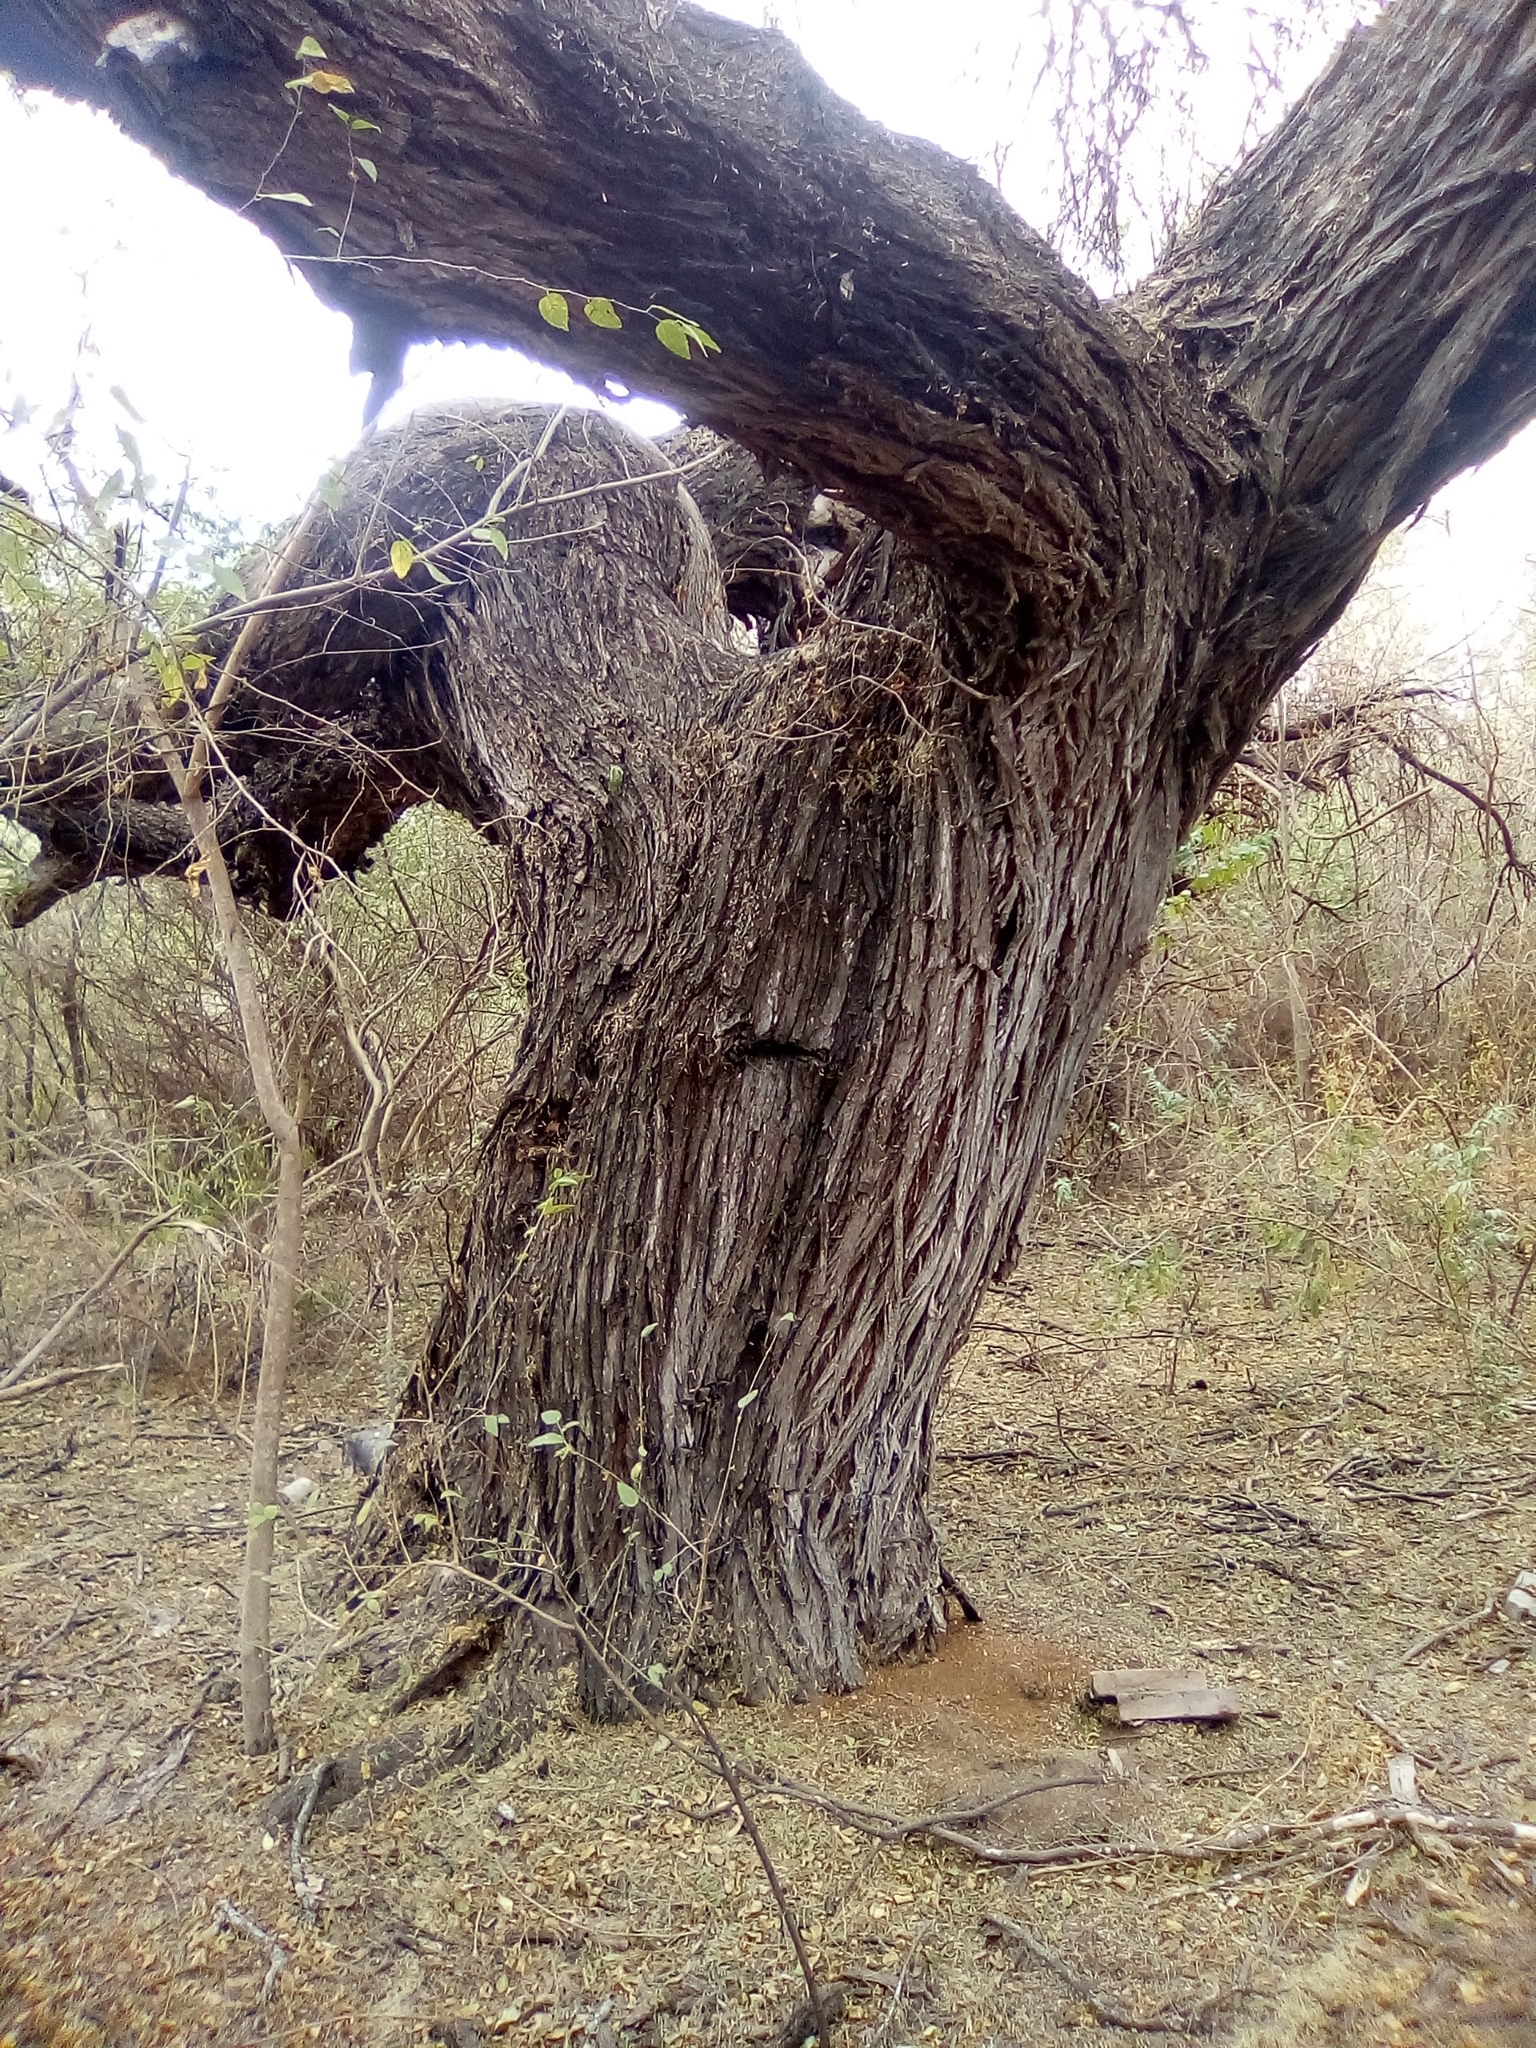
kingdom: Plantae
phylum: Tracheophyta
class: Magnoliopsida
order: Fabales
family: Fabaceae
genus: Prosopis
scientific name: Prosopis alba
